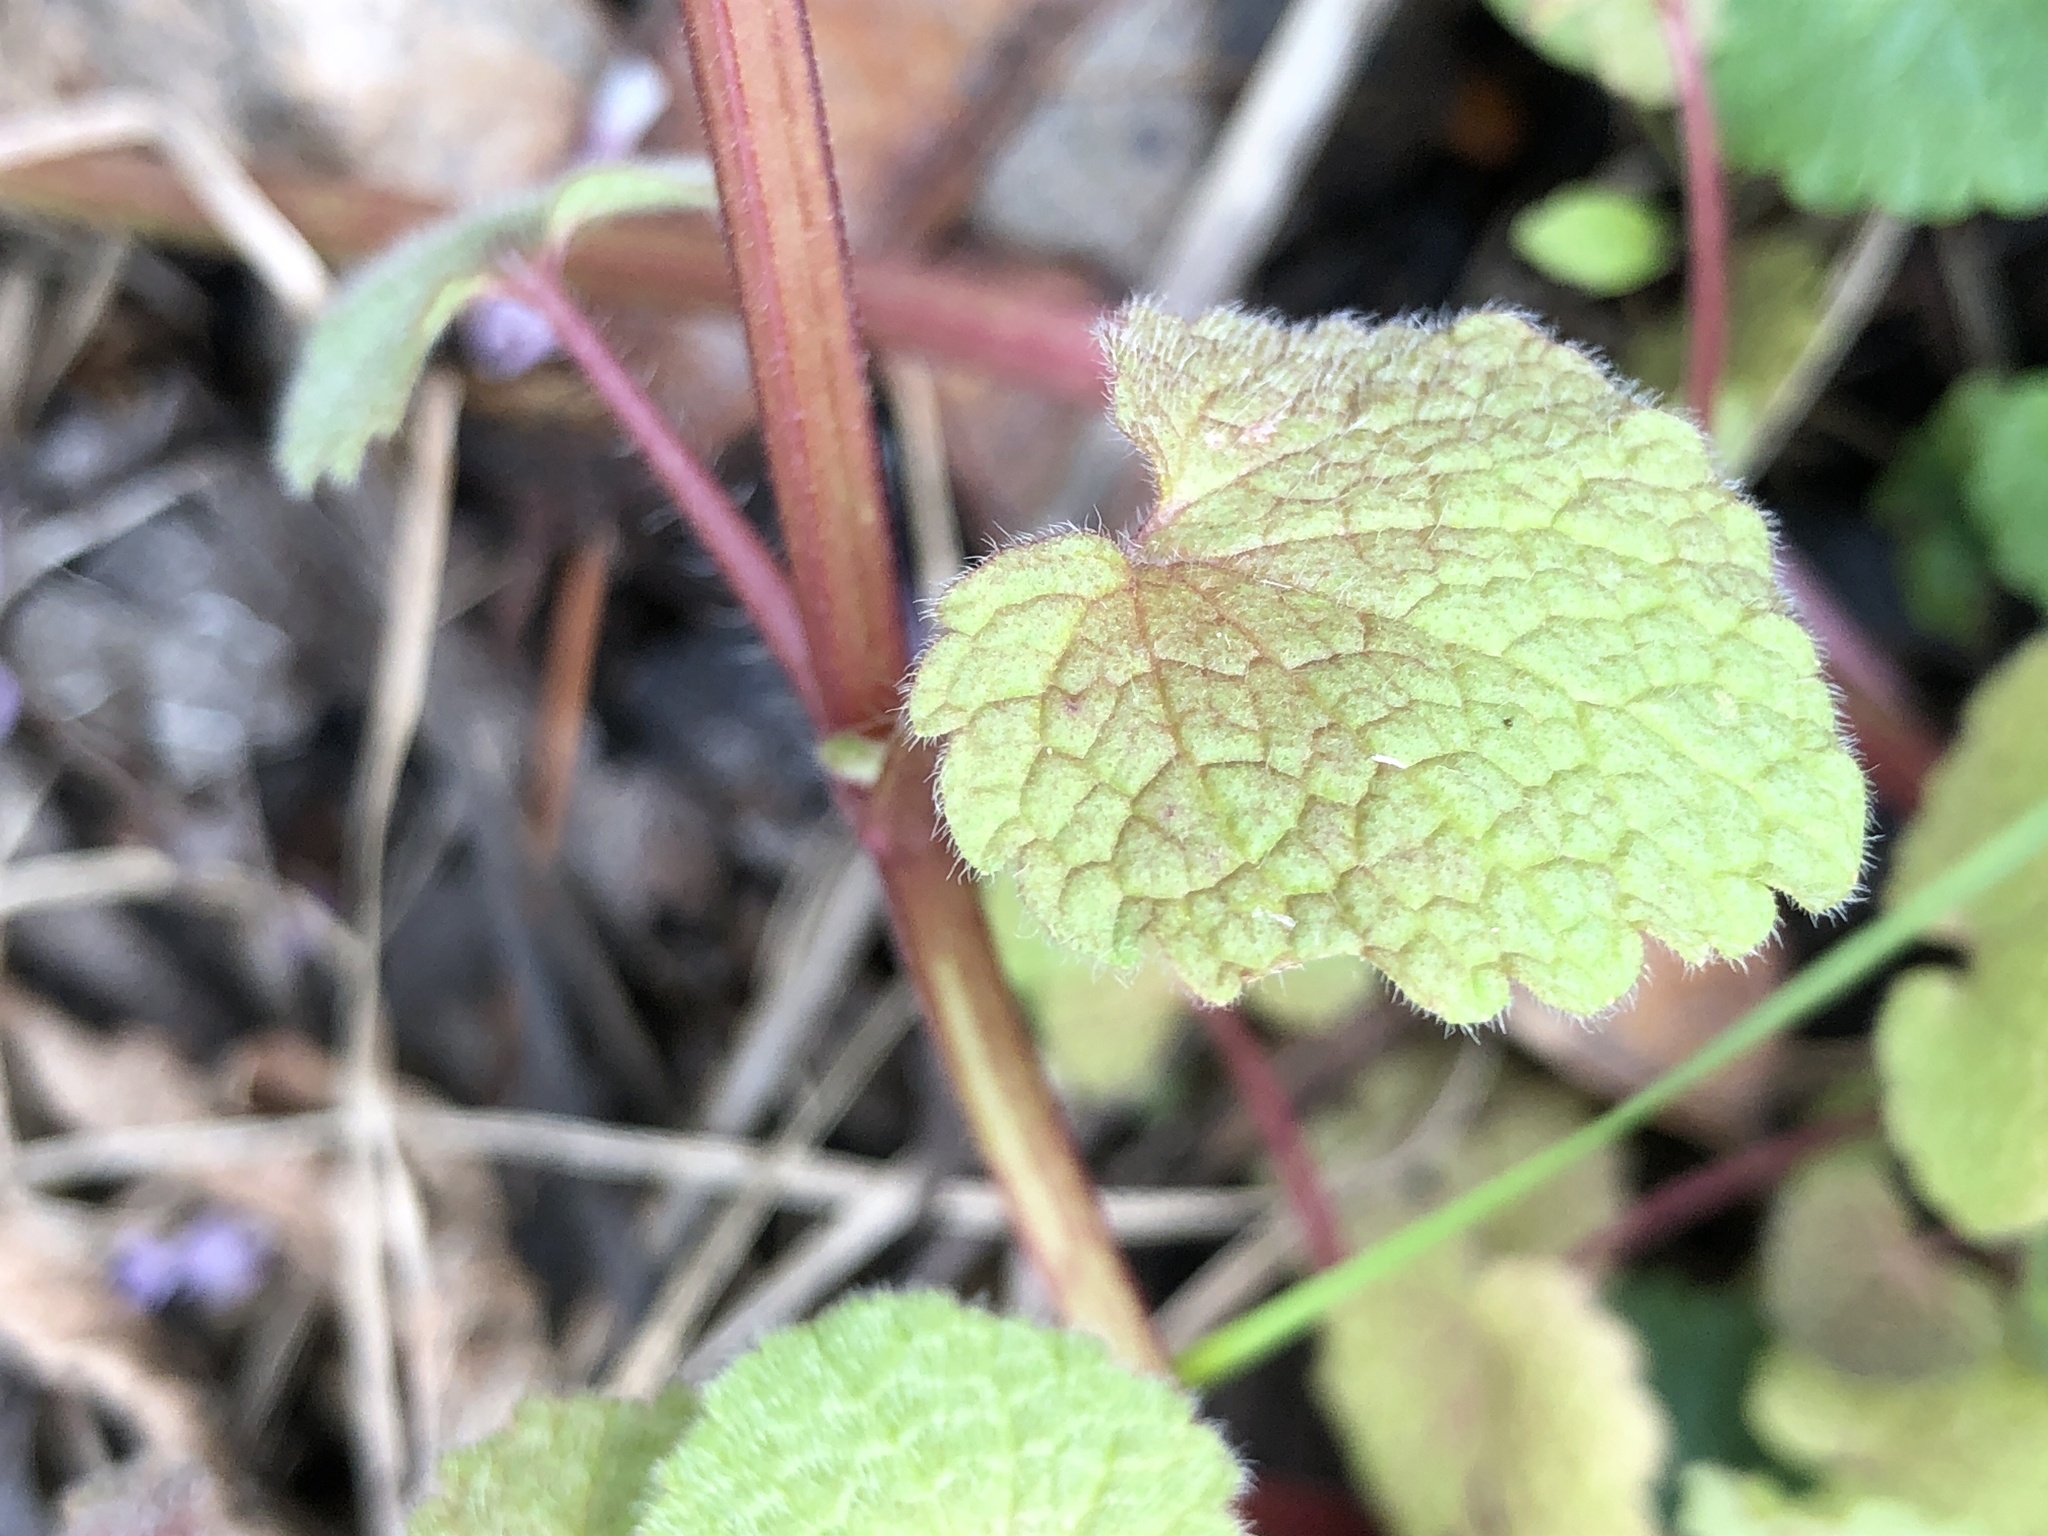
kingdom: Plantae
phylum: Tracheophyta
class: Magnoliopsida
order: Lamiales
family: Lamiaceae
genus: Lamium
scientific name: Lamium purpureum
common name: Red dead-nettle
